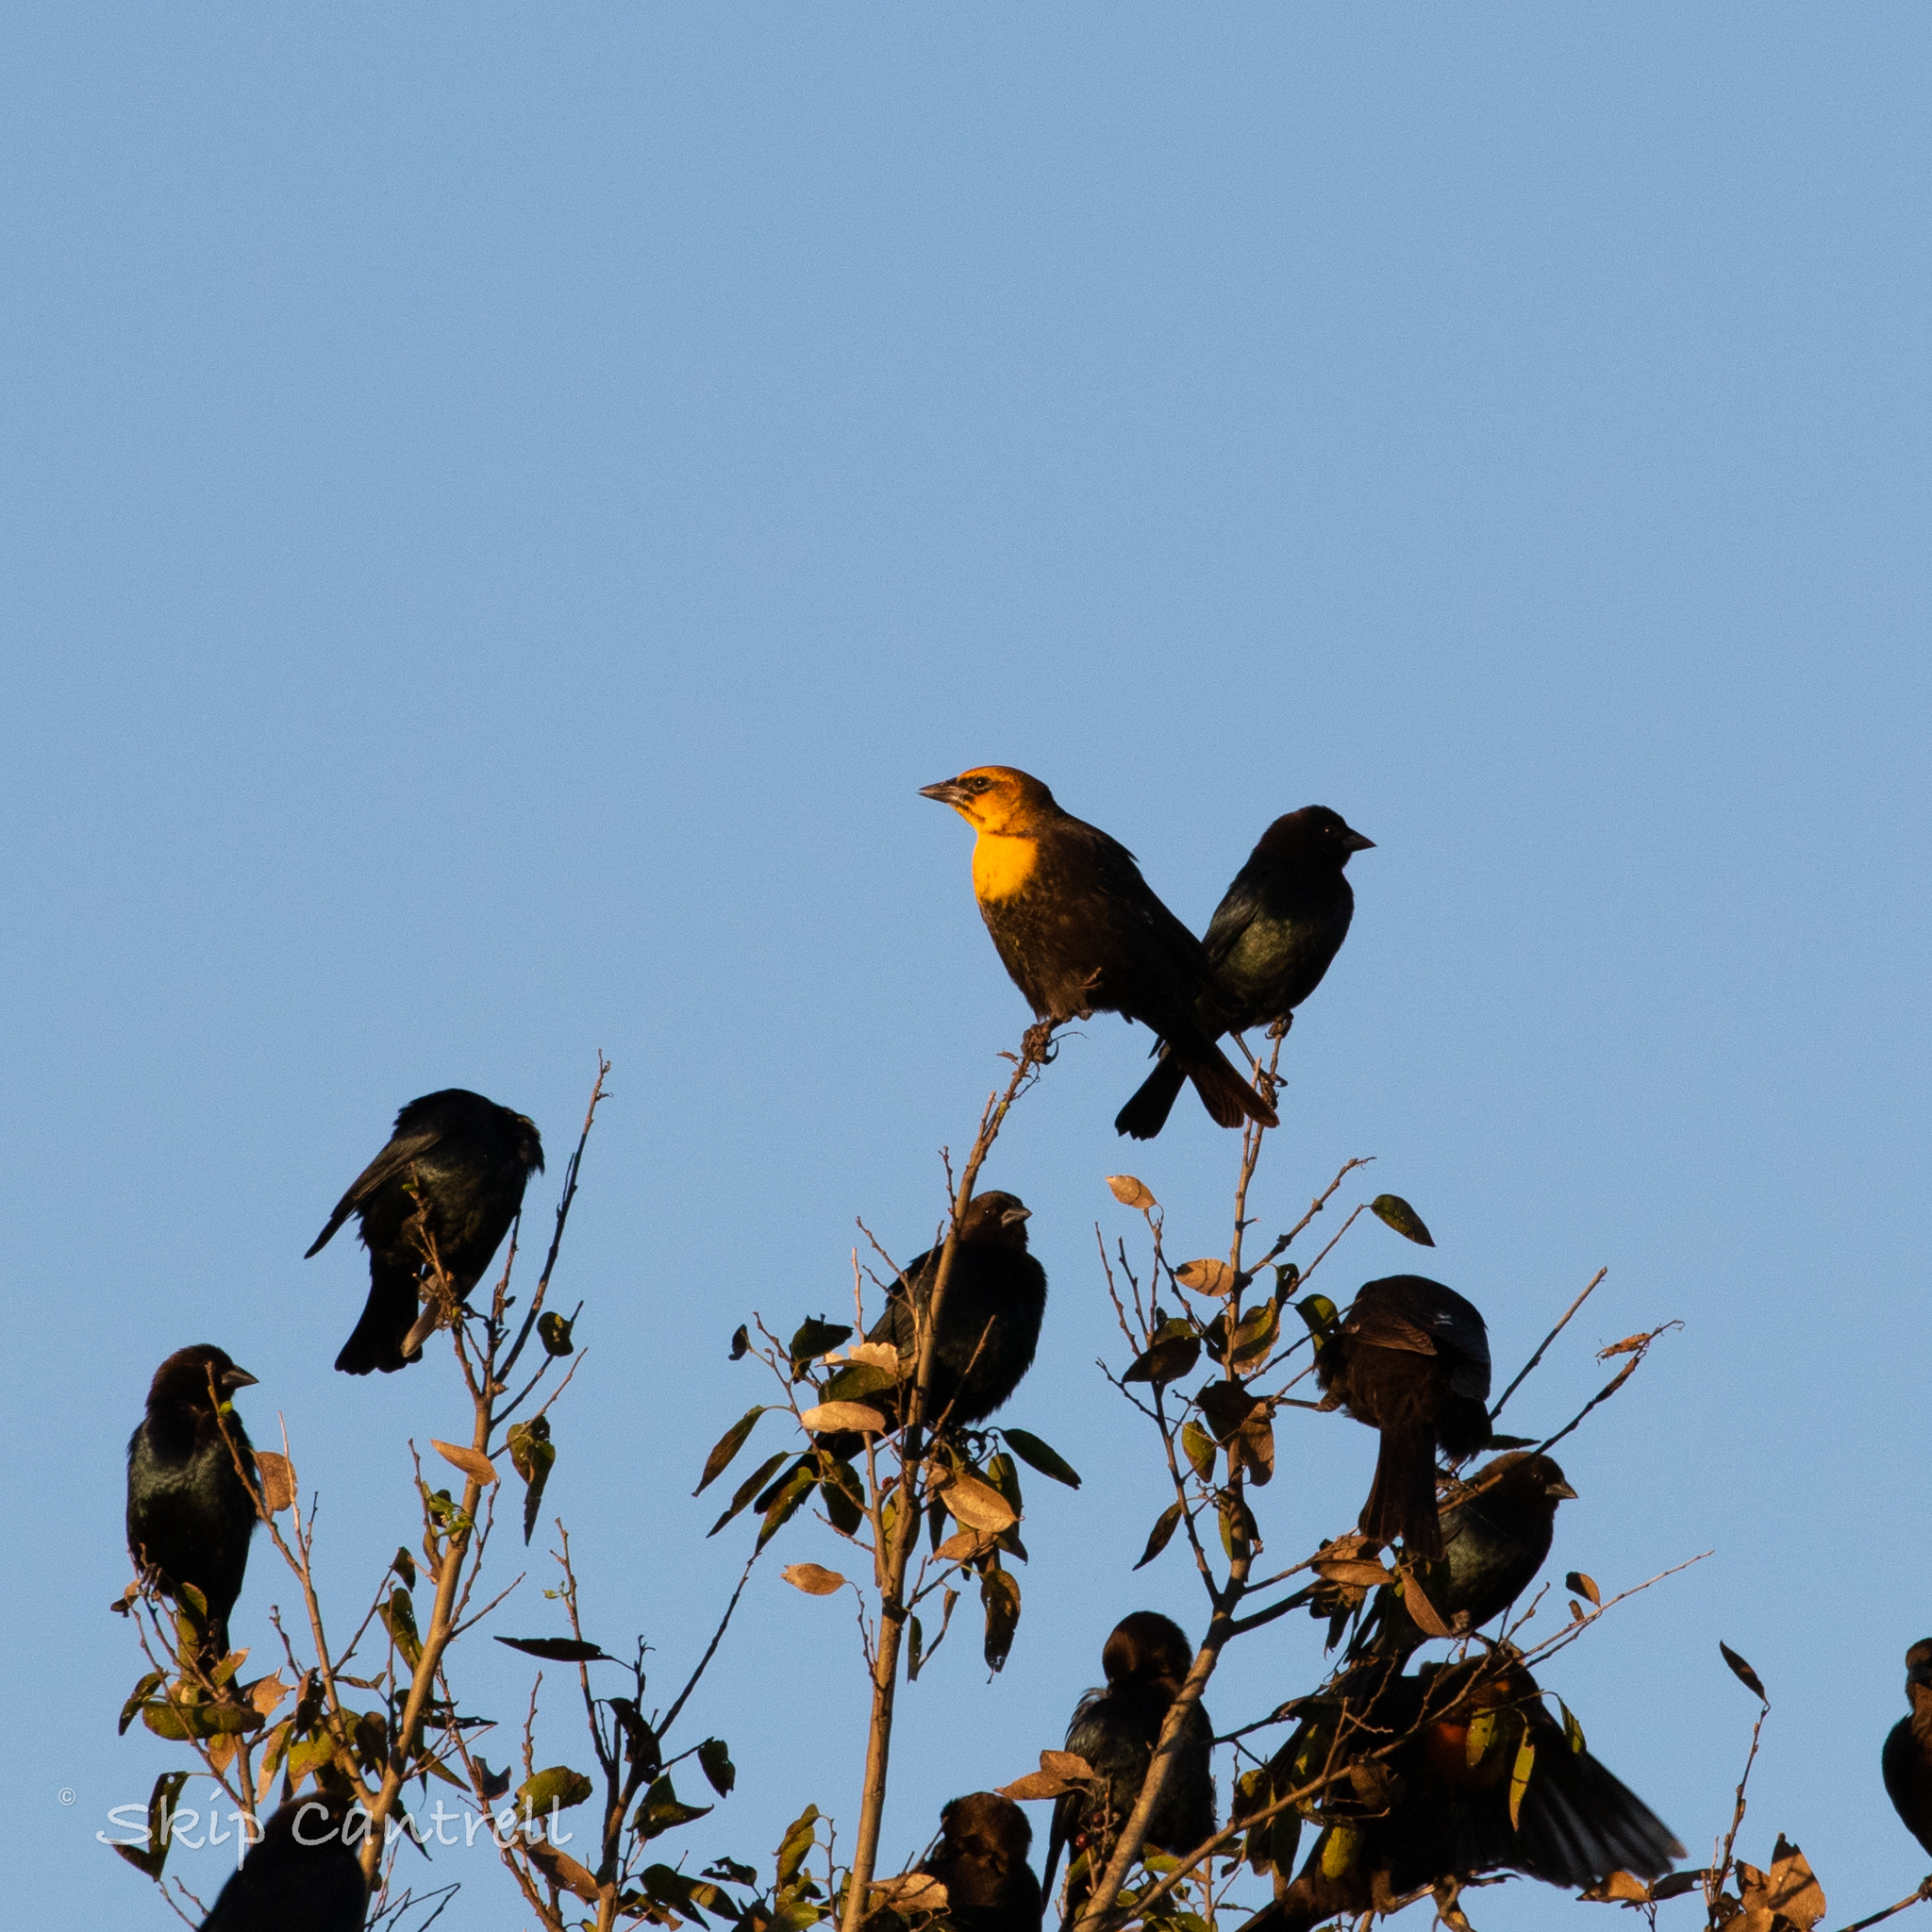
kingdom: Animalia
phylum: Chordata
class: Aves
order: Passeriformes
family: Icteridae
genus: Xanthocephalus
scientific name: Xanthocephalus xanthocephalus
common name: Yellow-headed blackbird
